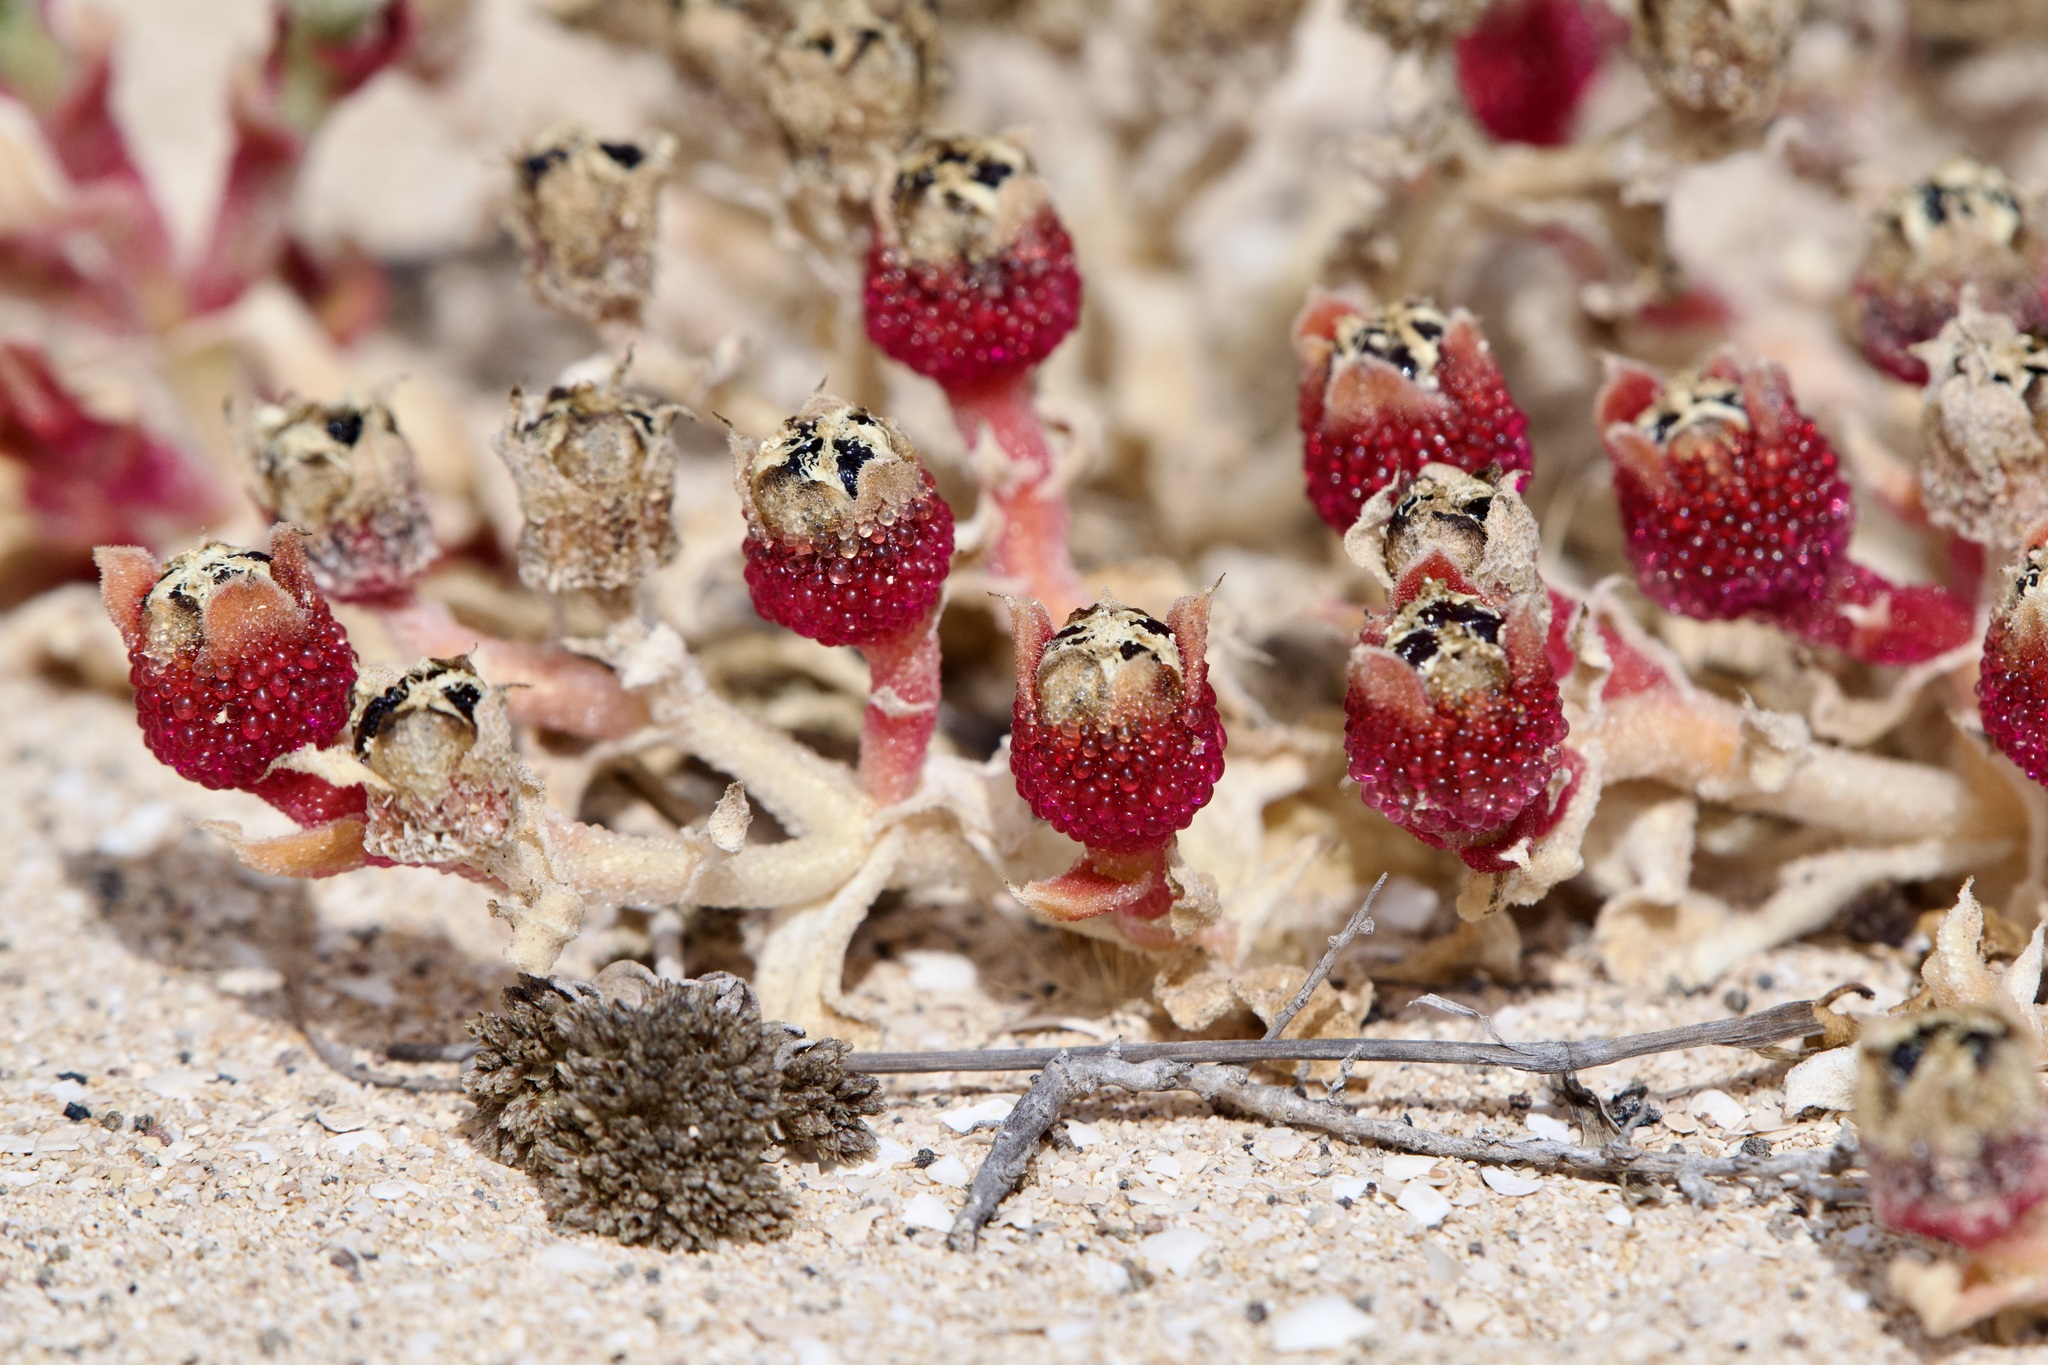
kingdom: Plantae
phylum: Tracheophyta
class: Magnoliopsida
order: Caryophyllales
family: Aizoaceae
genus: Mesembryanthemum
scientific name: Mesembryanthemum crystallinum
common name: Common iceplant
